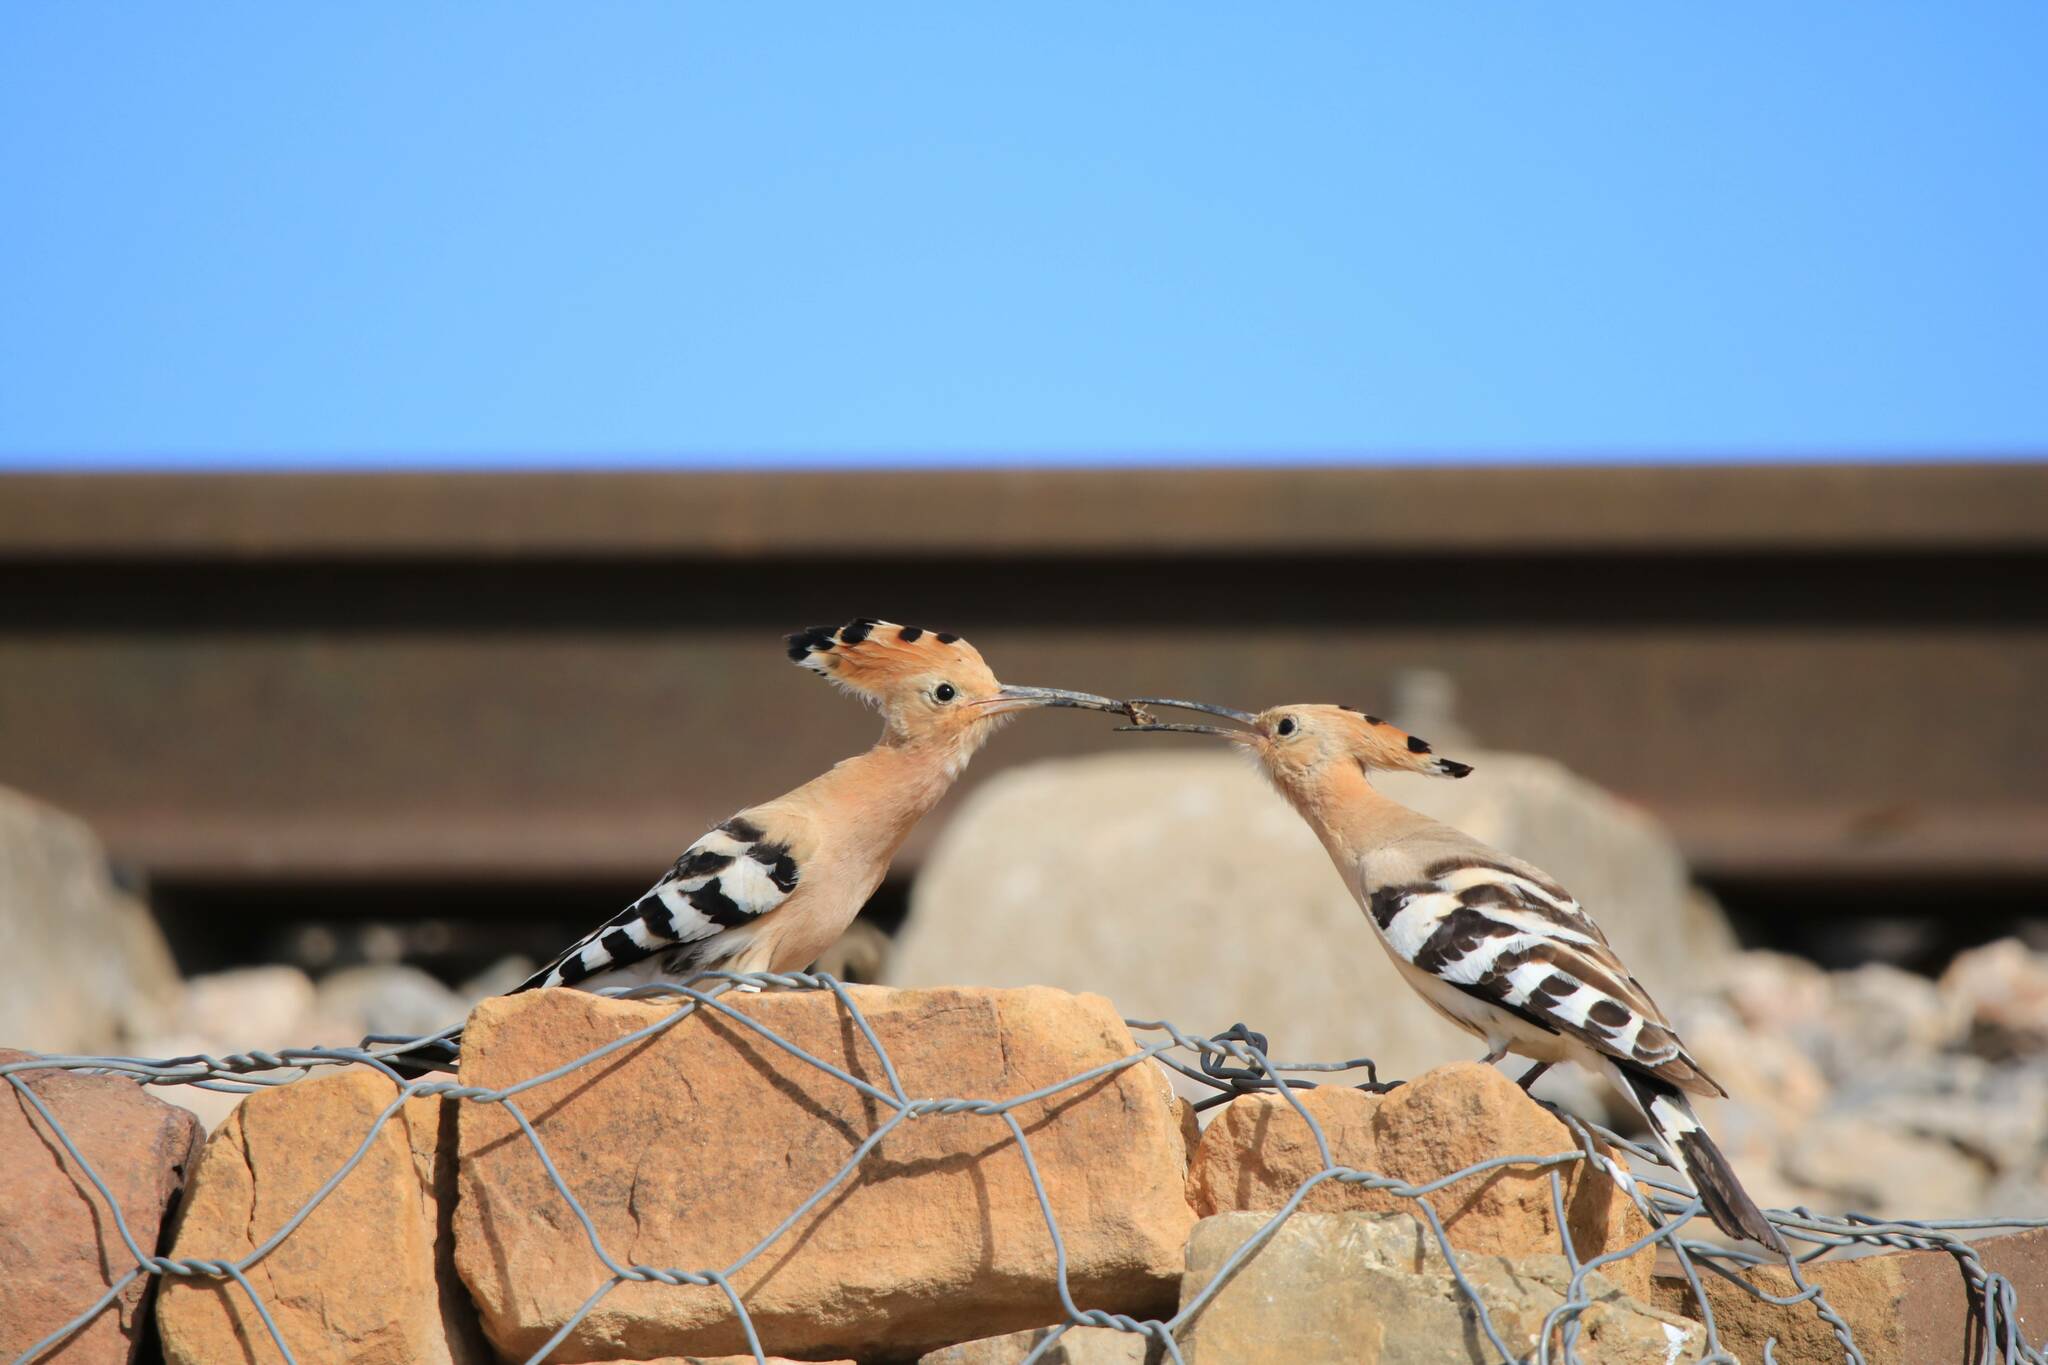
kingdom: Animalia
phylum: Chordata
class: Aves
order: Bucerotiformes
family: Upupidae
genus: Upupa
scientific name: Upupa epops
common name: Eurasian hoopoe
